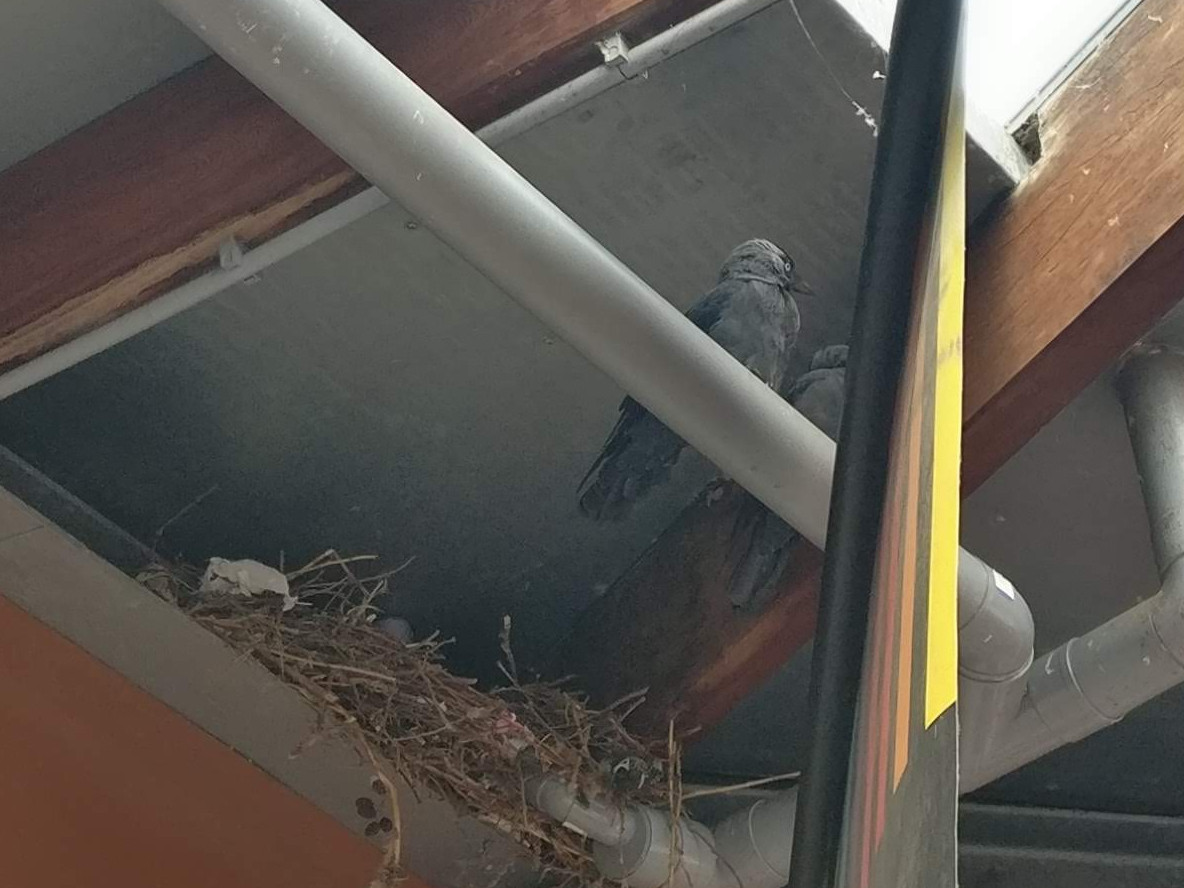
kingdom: Animalia
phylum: Chordata
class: Aves
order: Passeriformes
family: Corvidae
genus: Coloeus
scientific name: Coloeus monedula
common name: Western jackdaw
